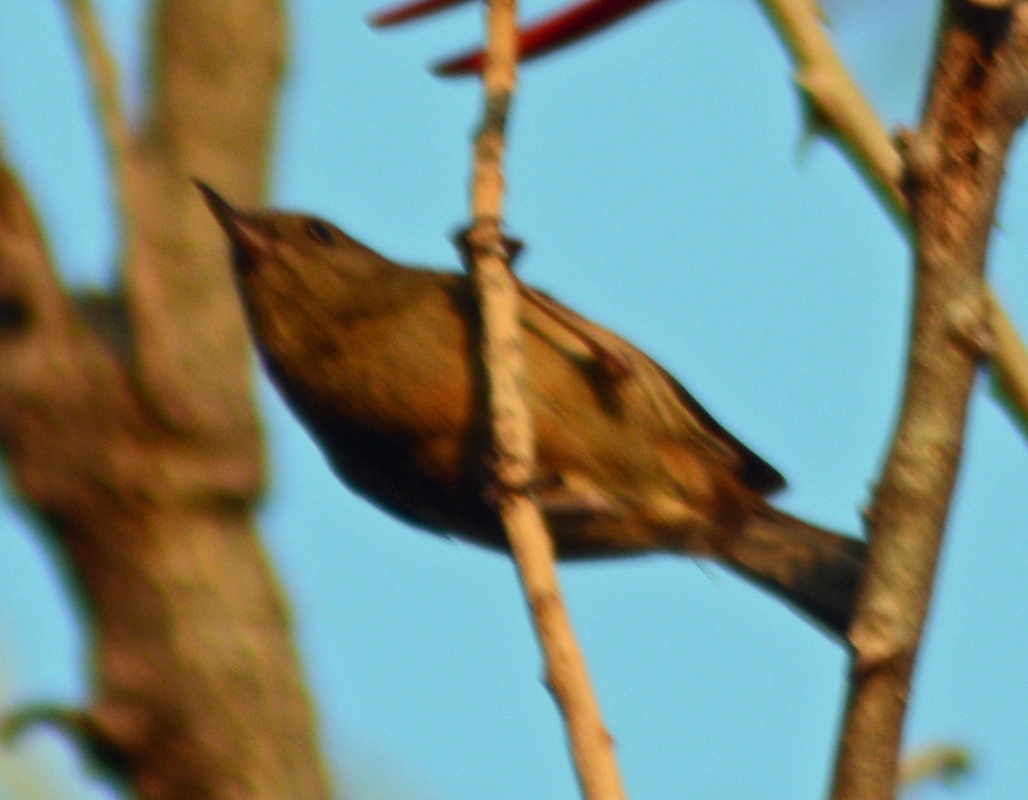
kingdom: Animalia
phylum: Chordata
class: Aves
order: Passeriformes
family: Thraupidae
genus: Diglossa
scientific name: Diglossa baritula
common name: Cinnamon-bellied flowerpiercer
